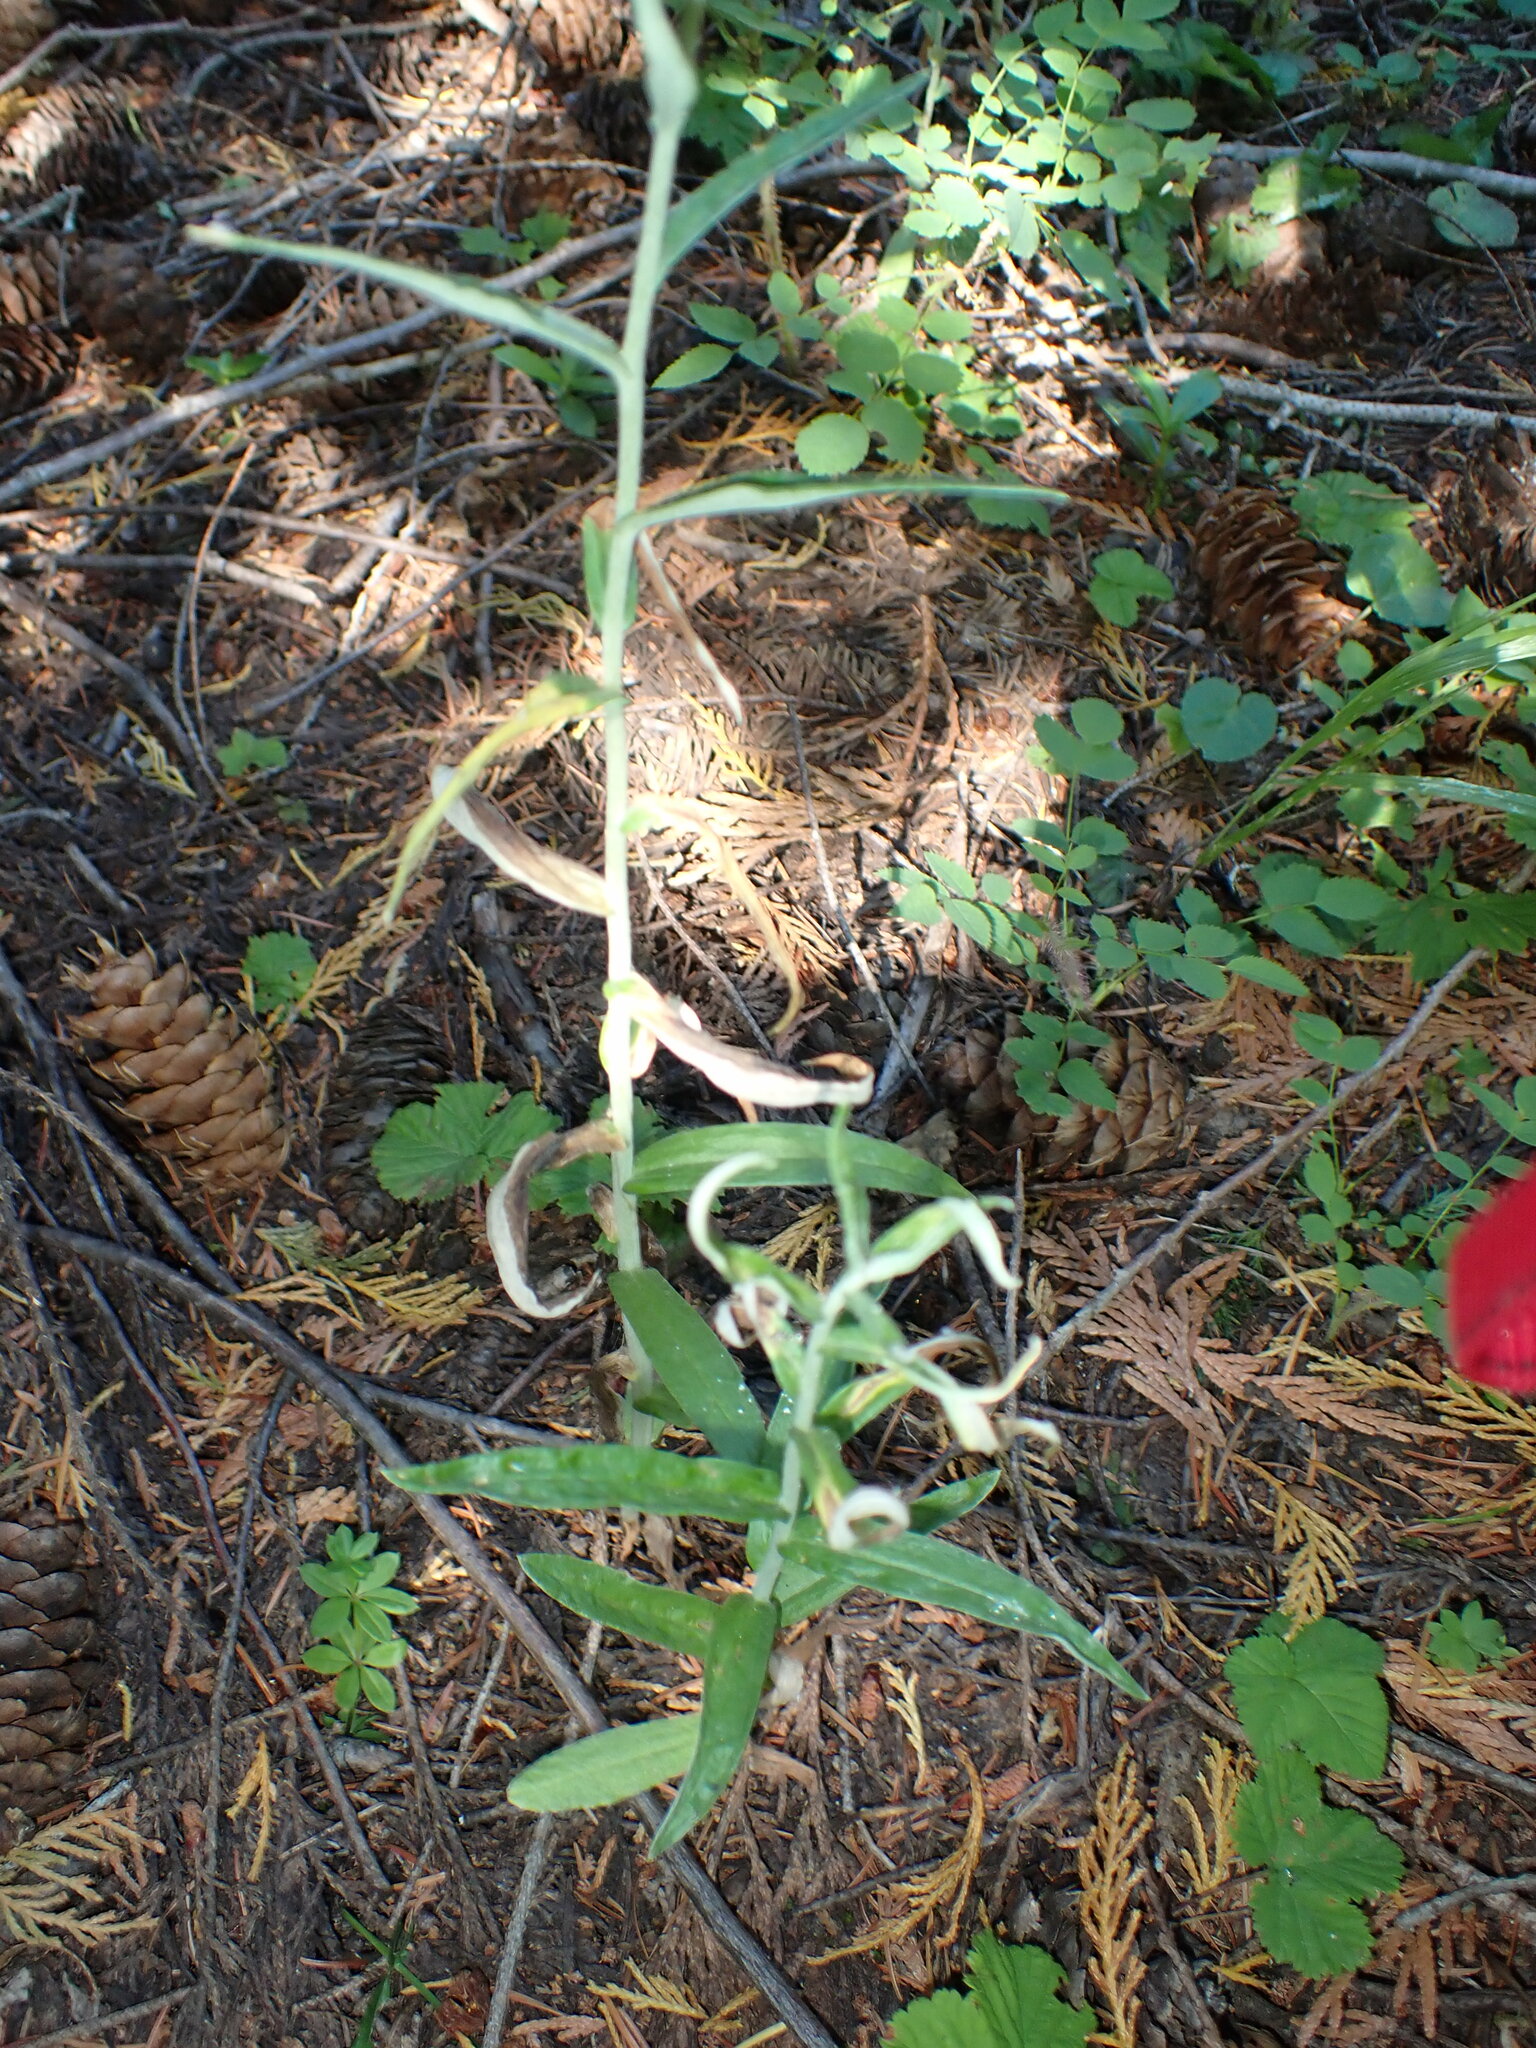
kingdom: Plantae
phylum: Tracheophyta
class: Magnoliopsida
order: Asterales
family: Asteraceae
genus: Anaphalis
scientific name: Anaphalis margaritacea
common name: Pearly everlasting
